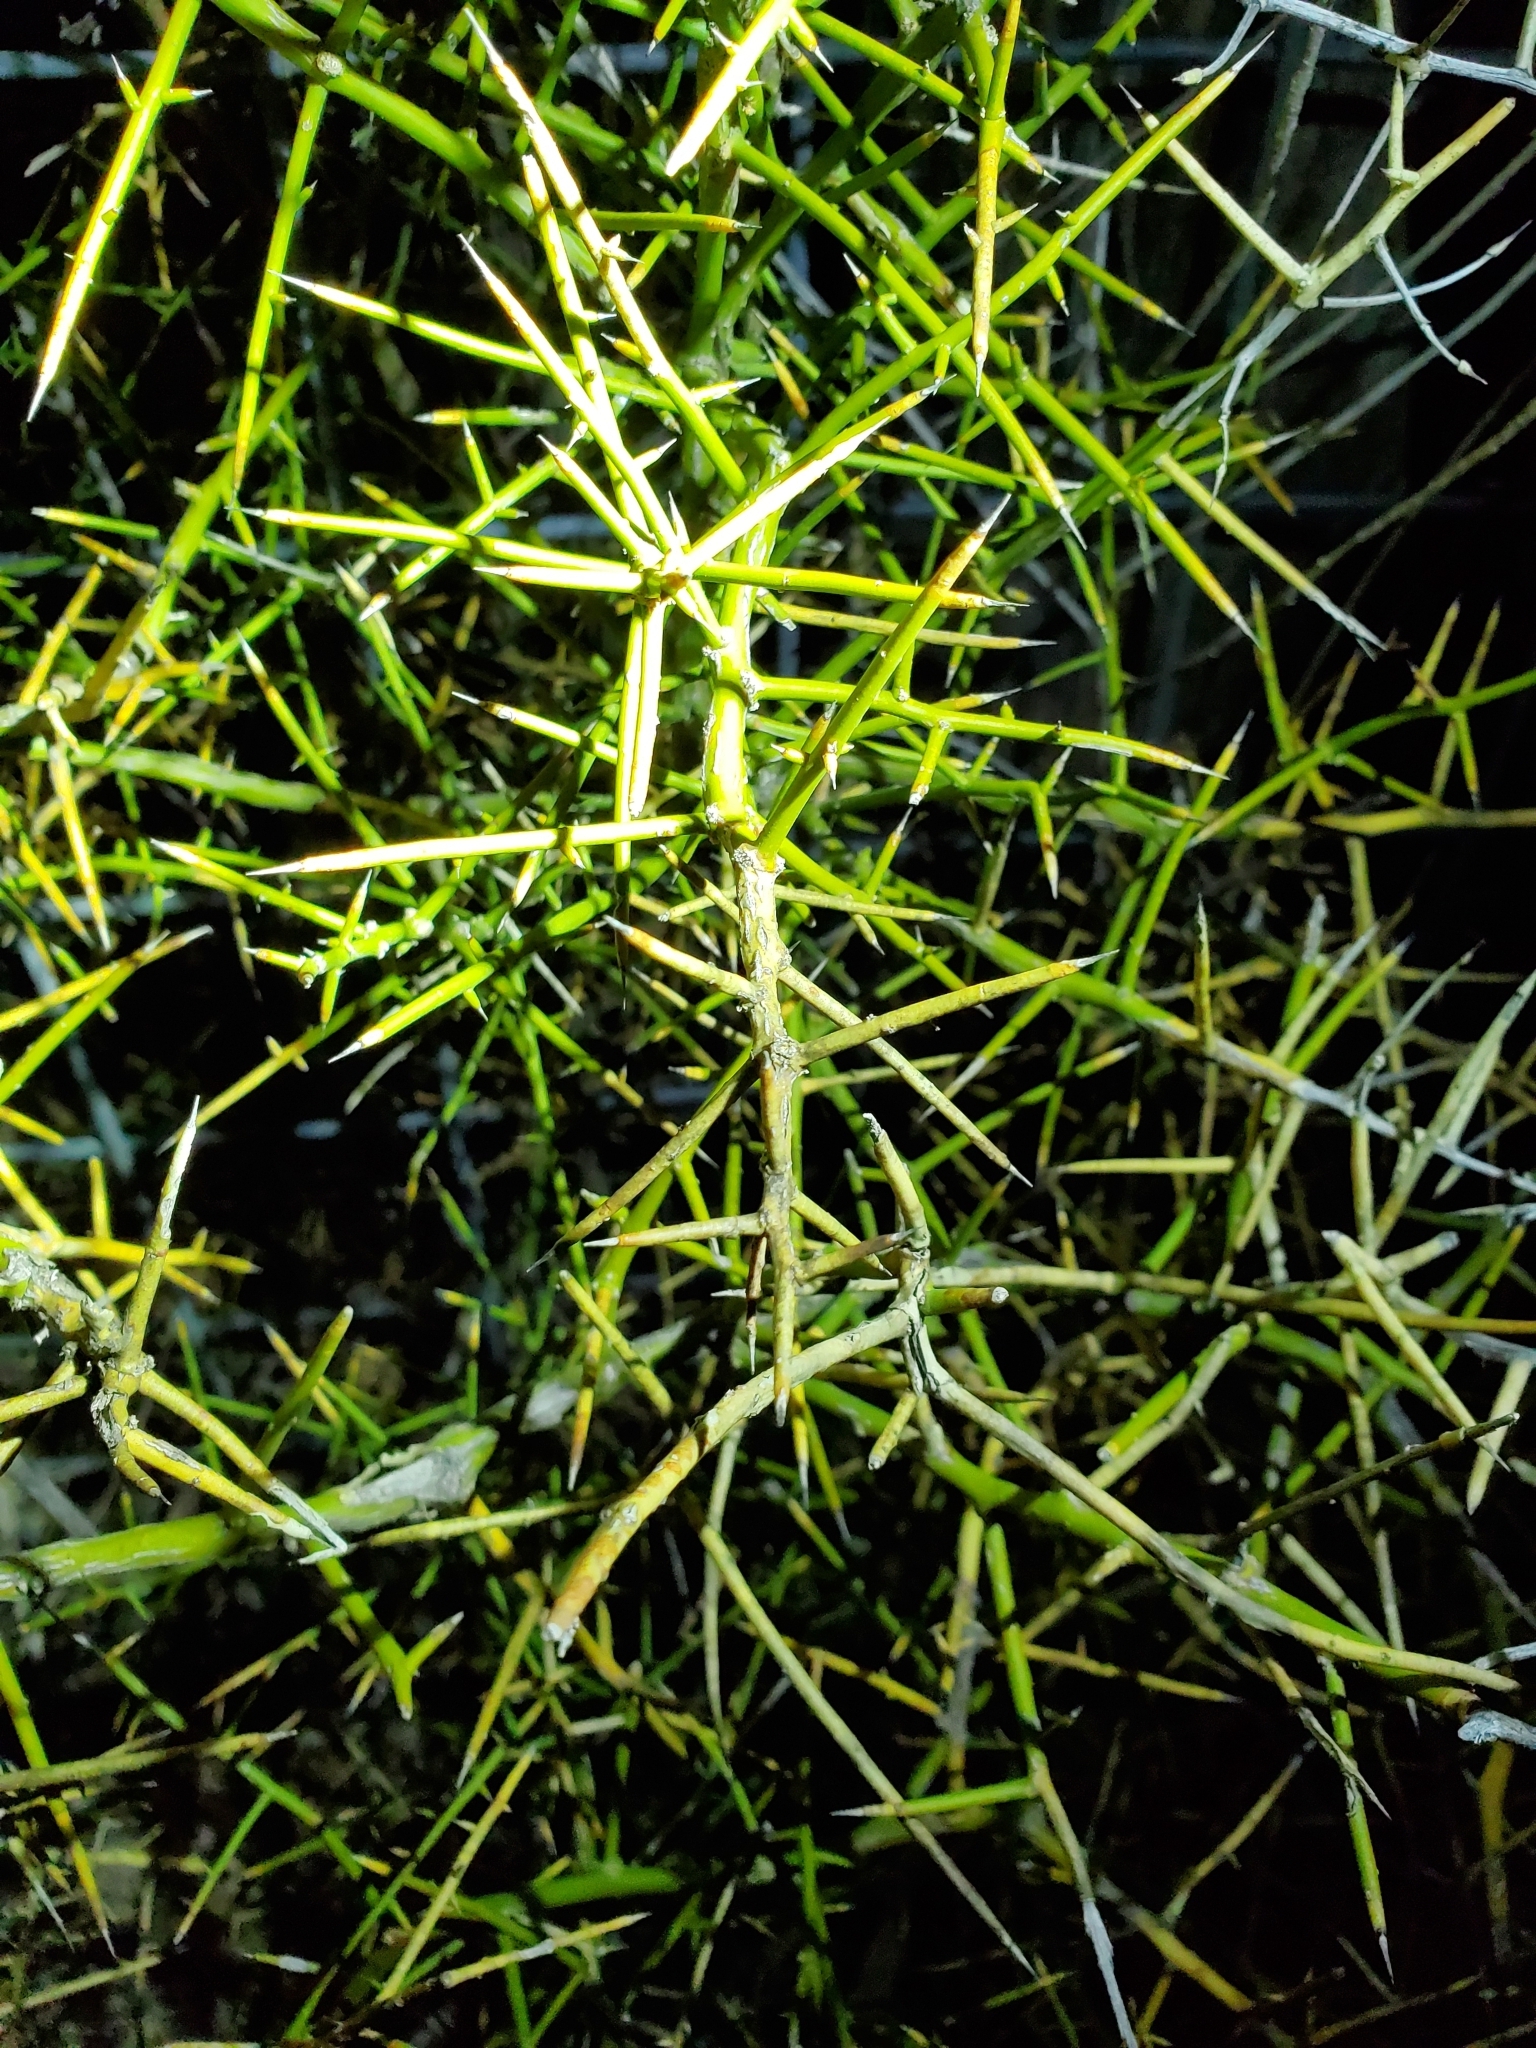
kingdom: Plantae
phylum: Tracheophyta
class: Magnoliopsida
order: Brassicales
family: Koeberliniaceae
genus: Koeberlinia
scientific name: Koeberlinia spinosa
